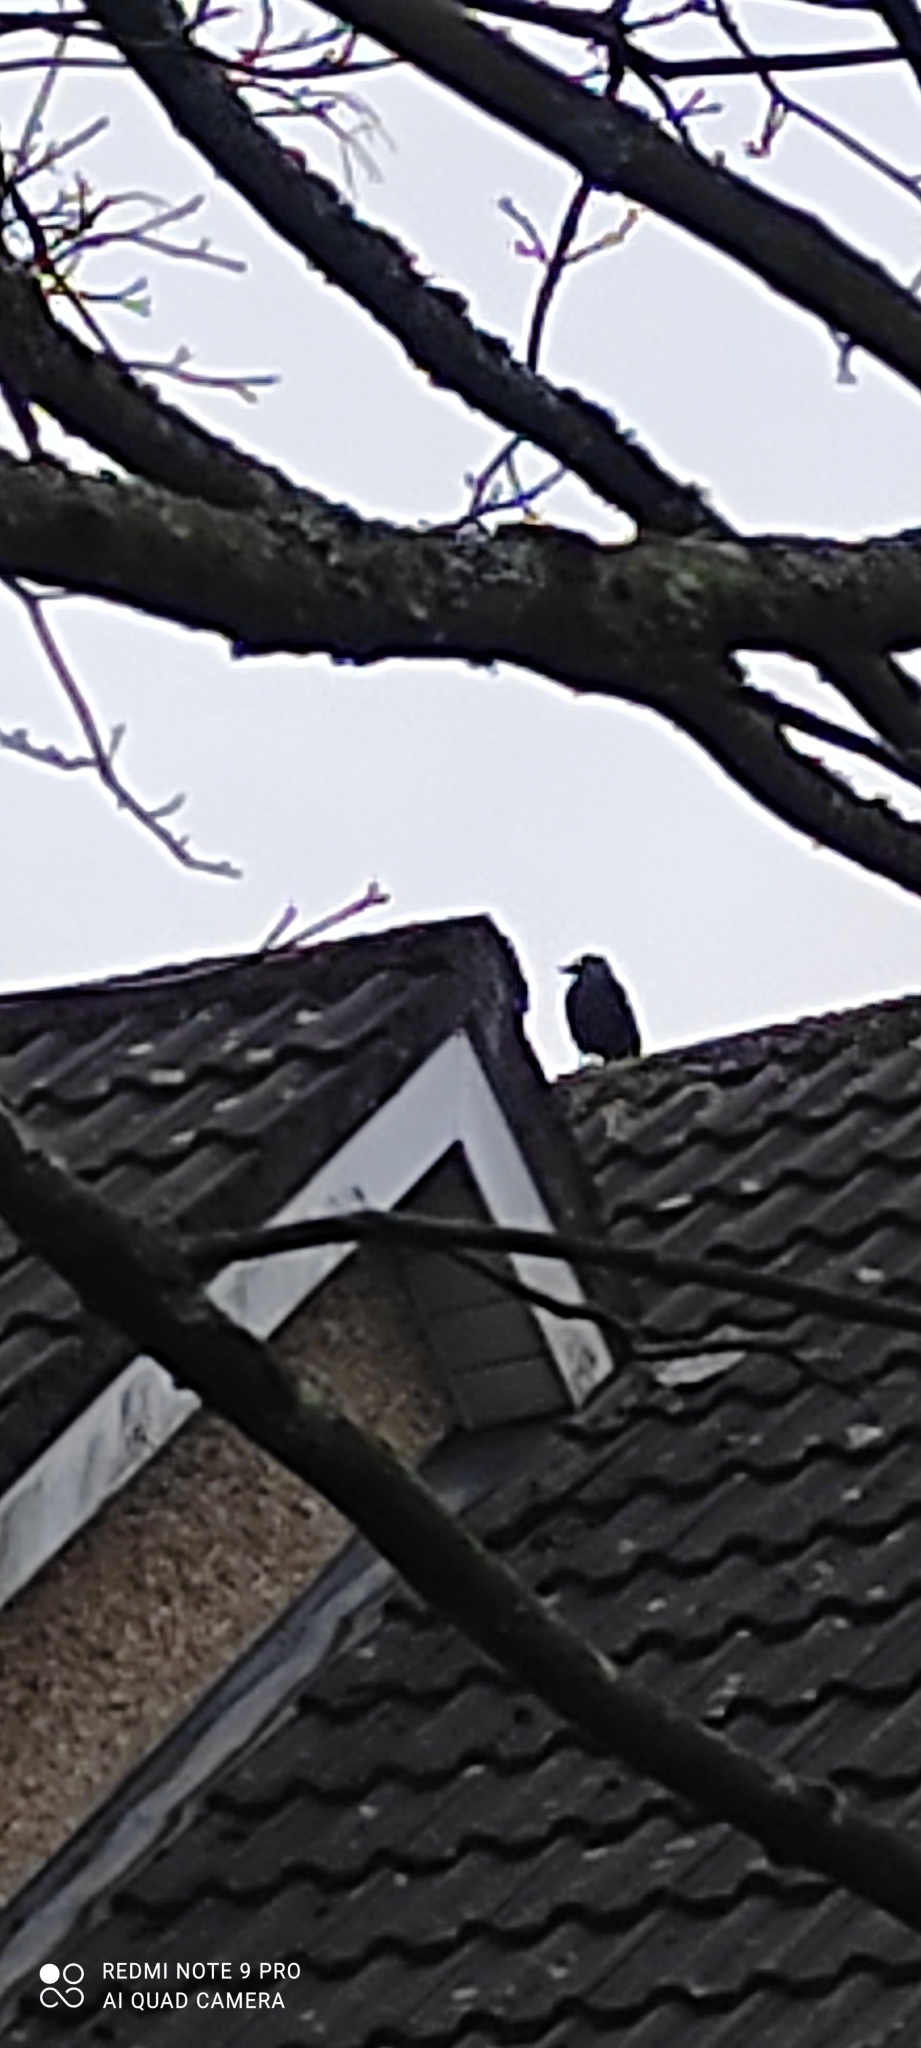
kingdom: Animalia
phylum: Chordata
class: Aves
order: Passeriformes
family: Corvidae
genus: Coloeus
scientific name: Coloeus monedula
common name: Western jackdaw
